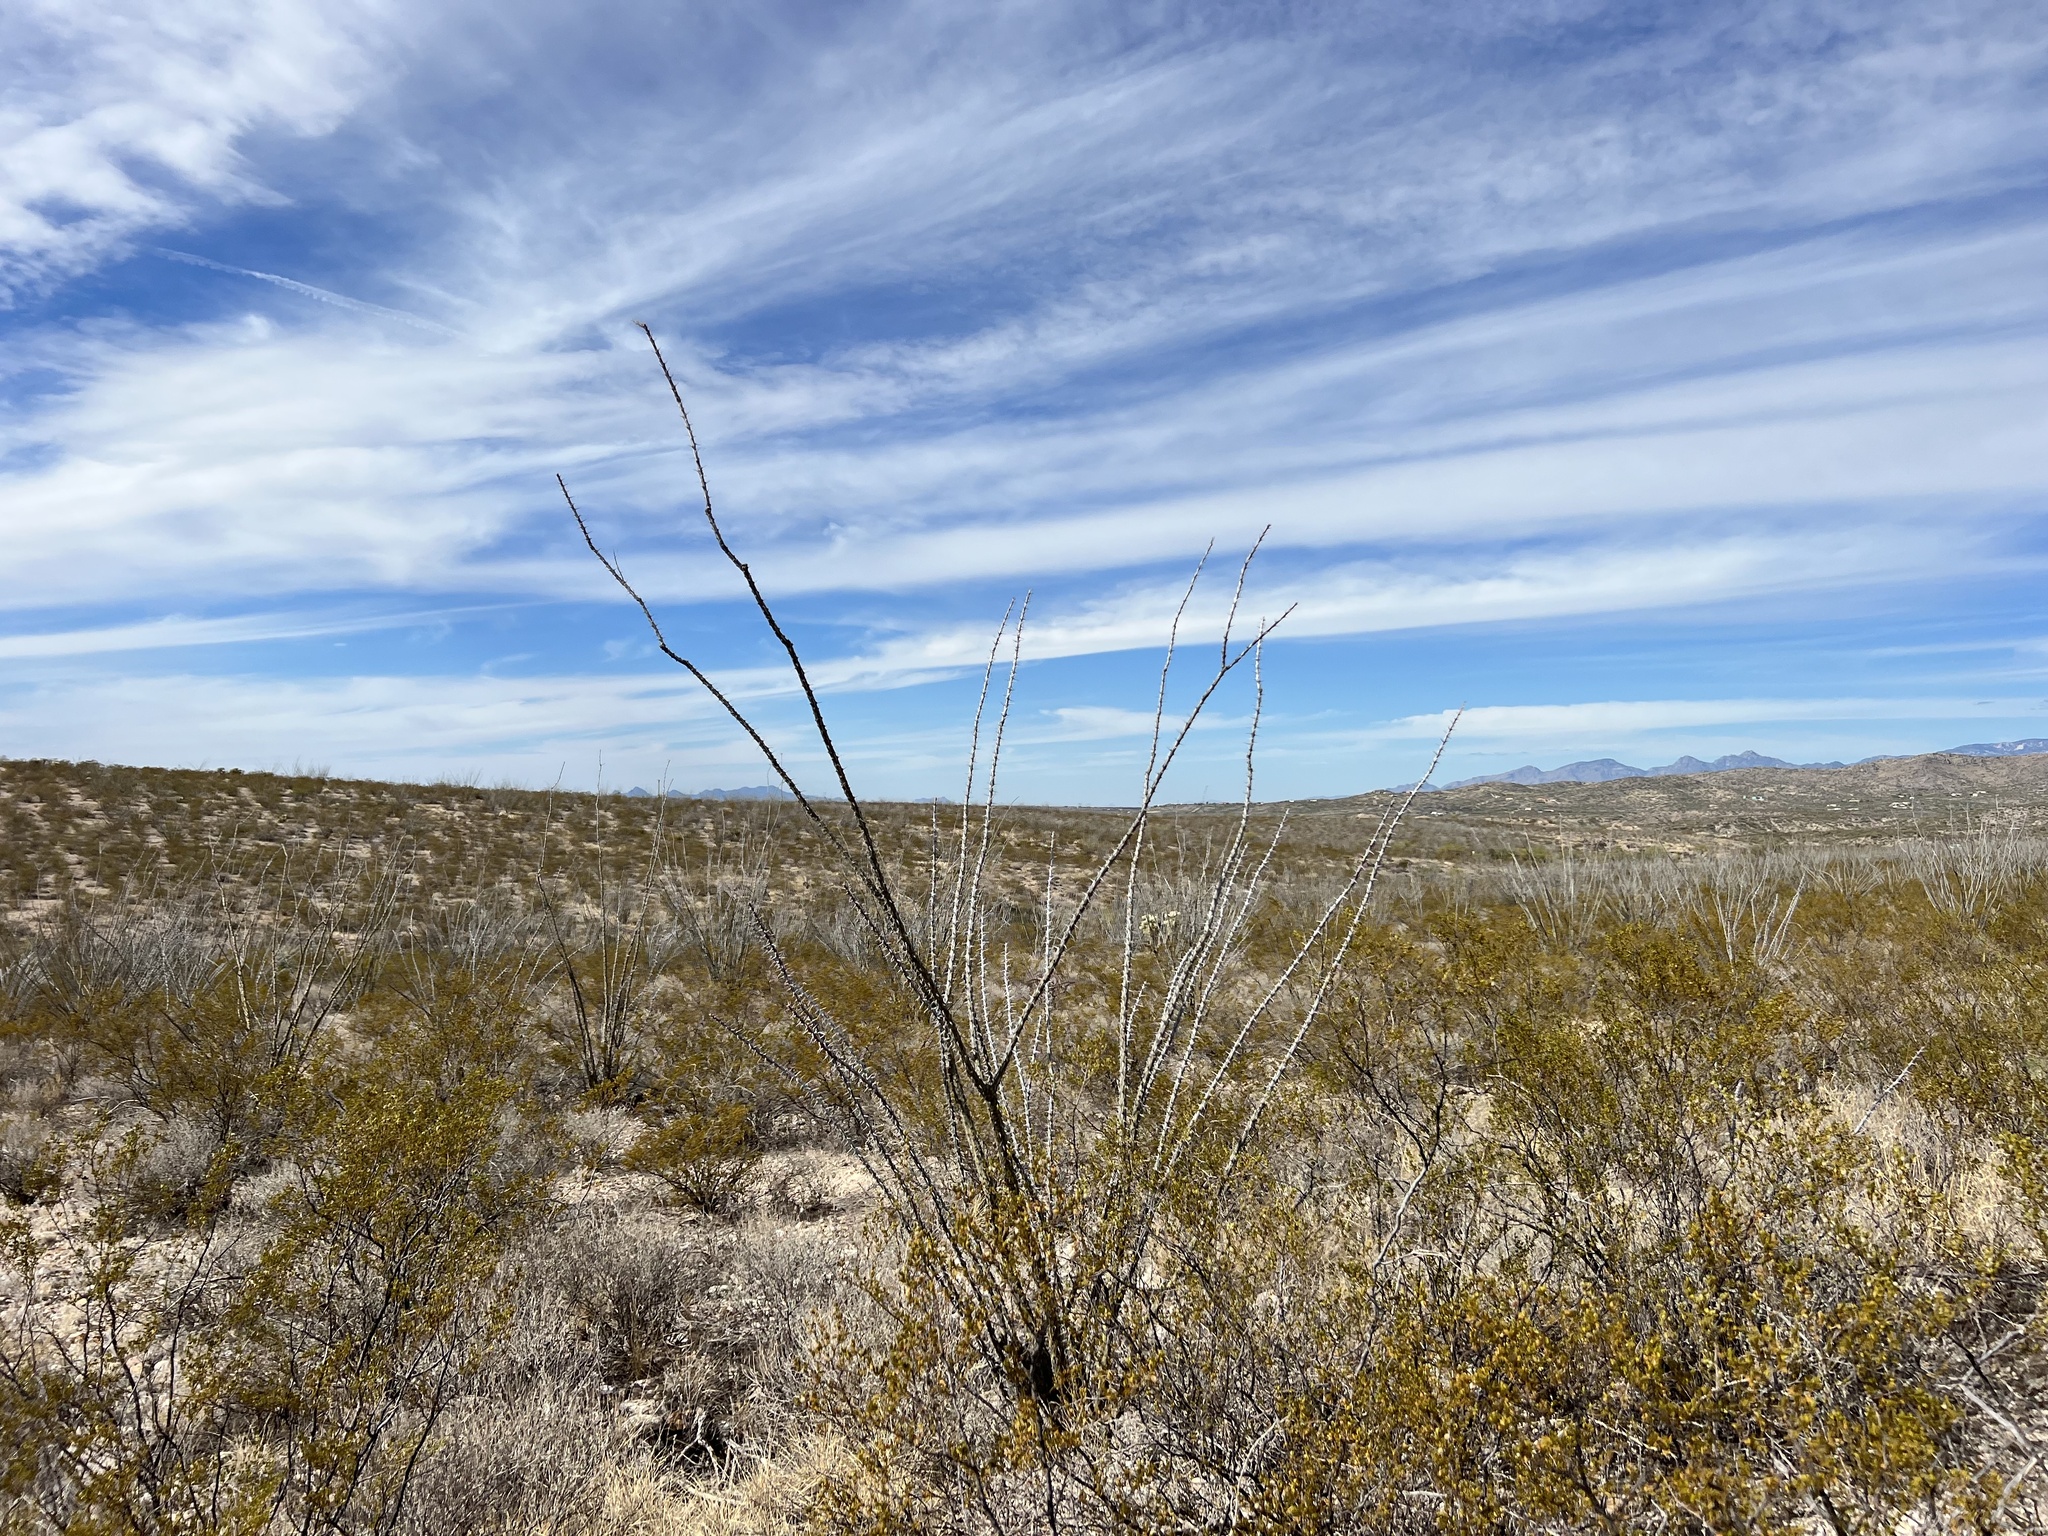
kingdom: Plantae
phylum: Tracheophyta
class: Magnoliopsida
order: Ericales
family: Fouquieriaceae
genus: Fouquieria
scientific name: Fouquieria splendens
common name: Vine-cactus
